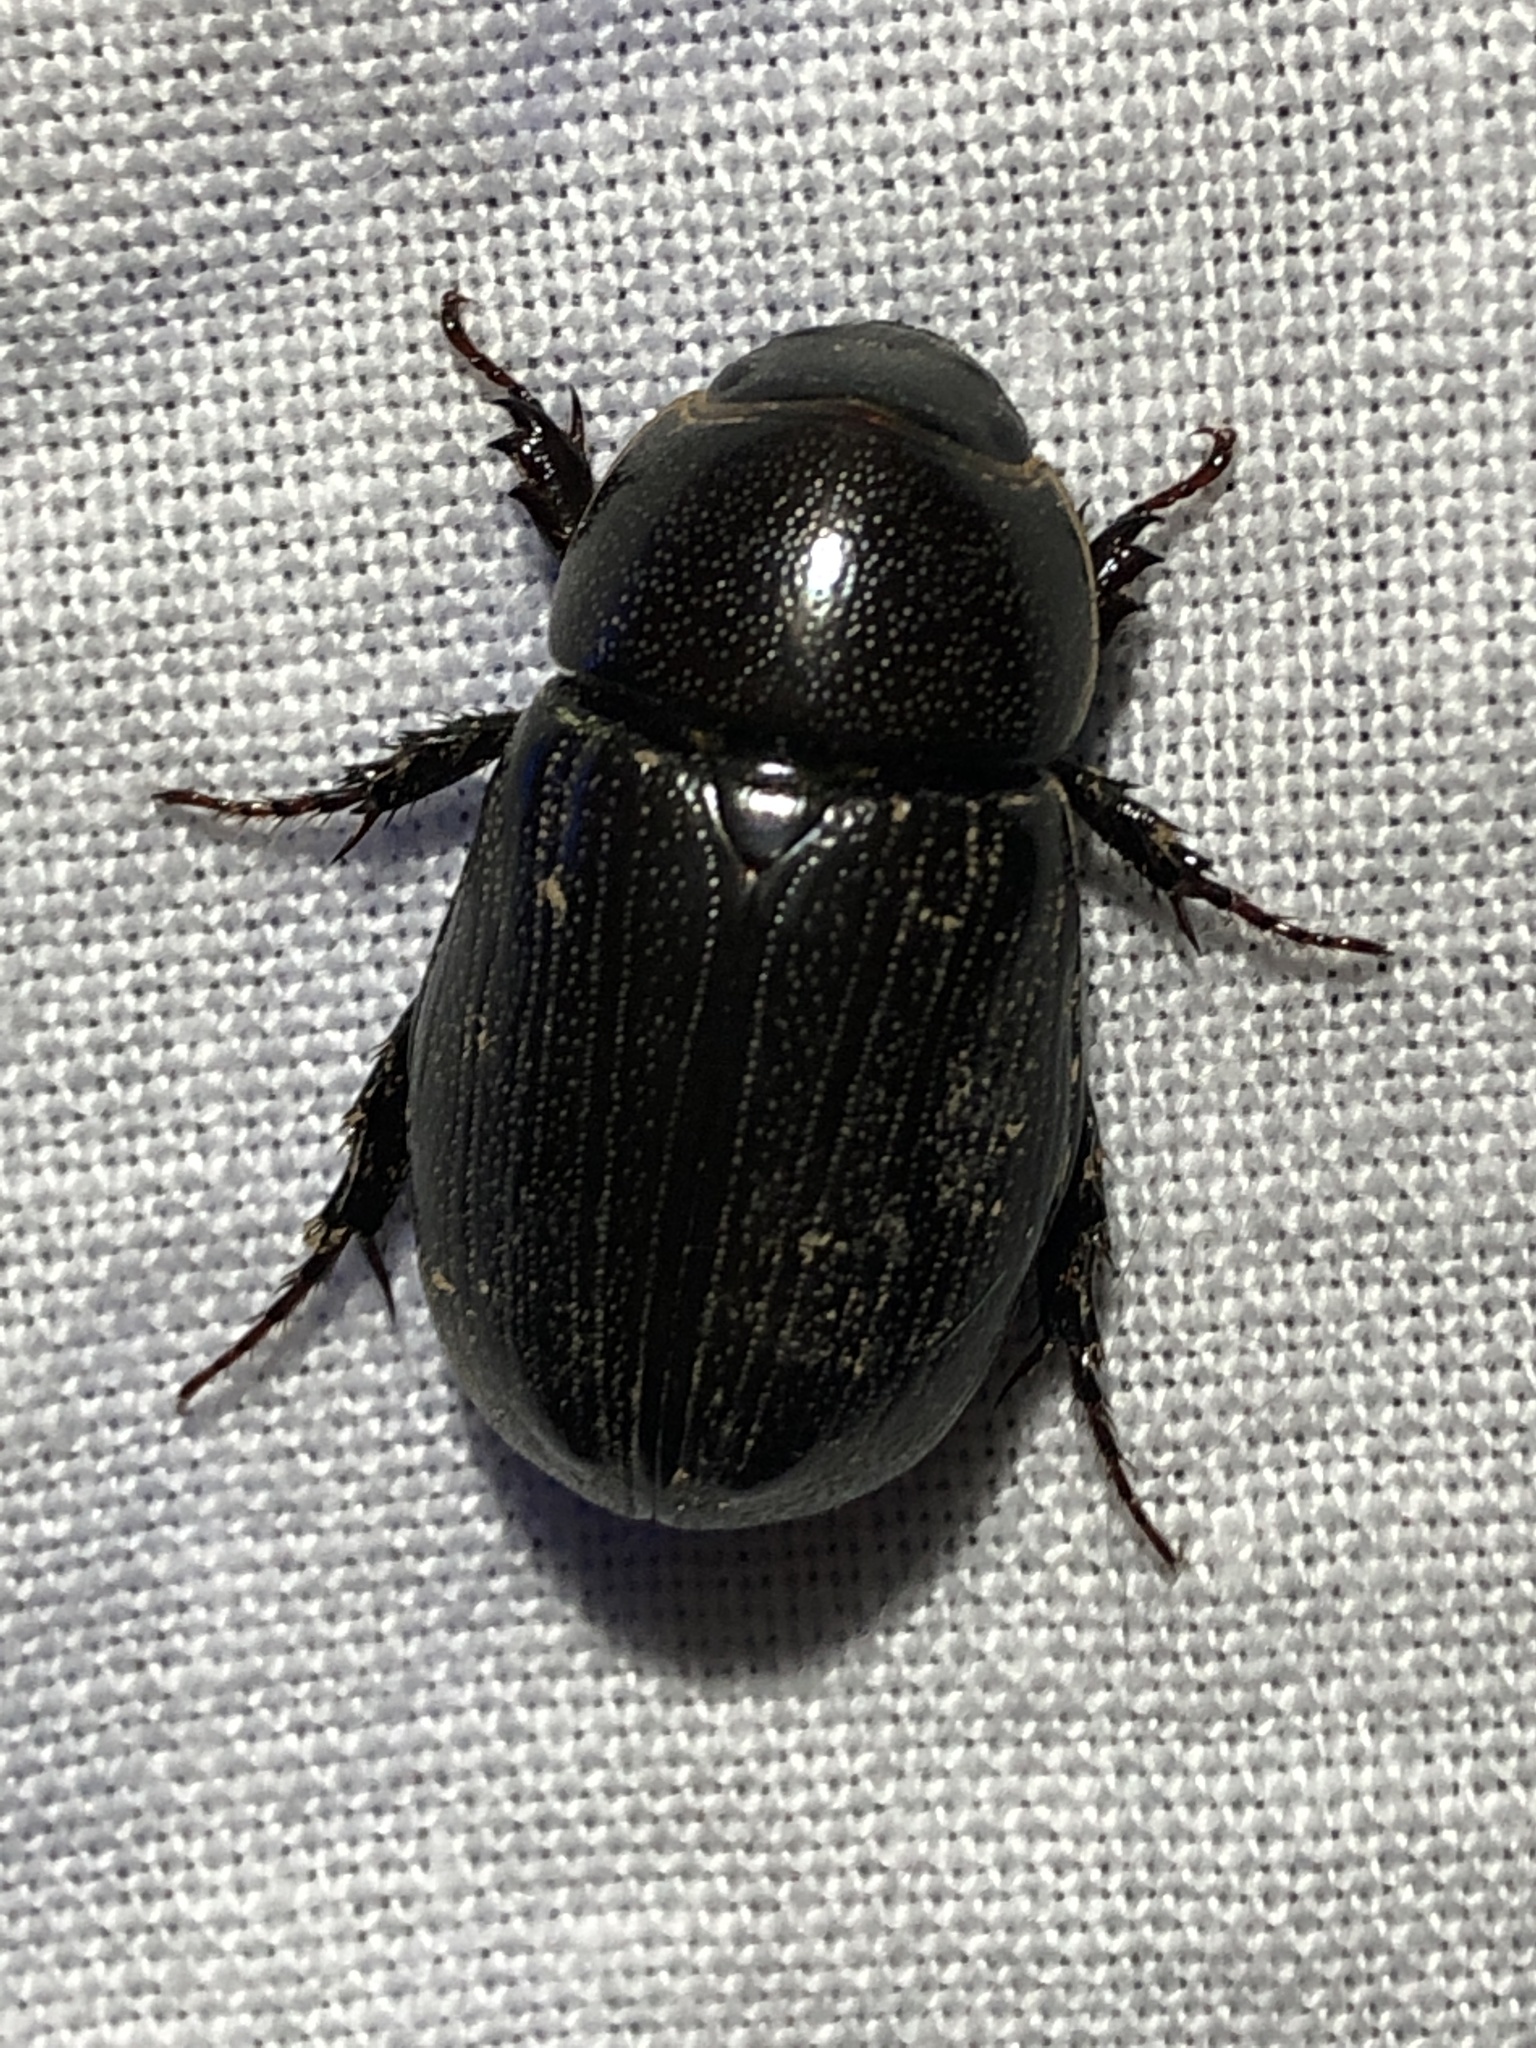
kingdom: Animalia
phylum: Arthropoda
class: Insecta
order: Coleoptera
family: Scarabaeidae
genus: Dyscinetus
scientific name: Dyscinetus morator
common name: Rice beetle
